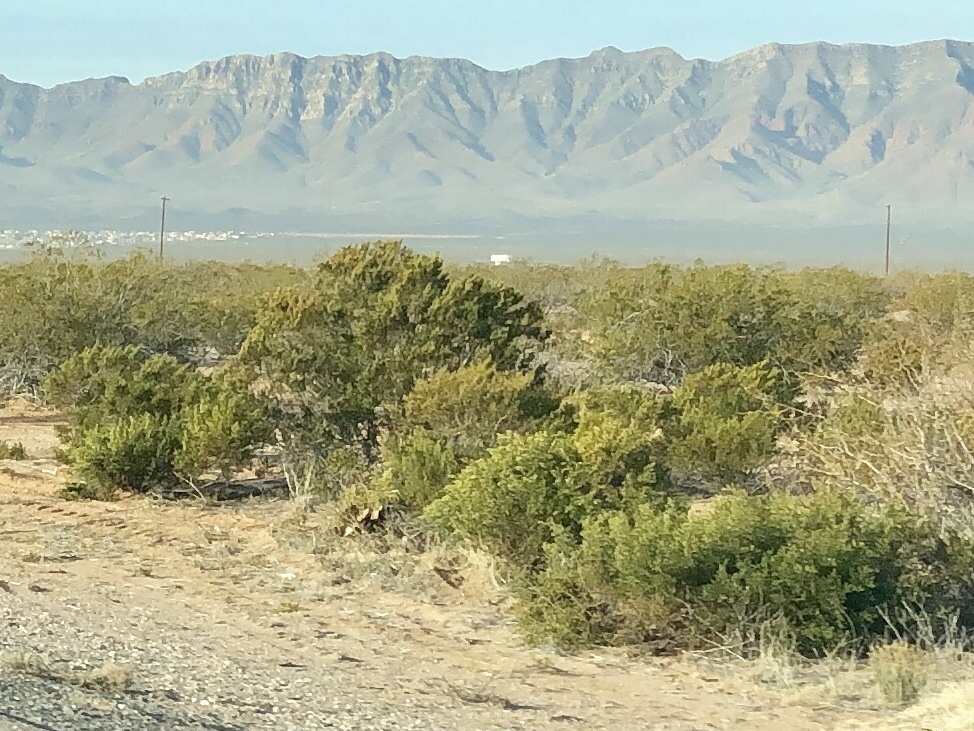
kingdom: Plantae
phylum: Tracheophyta
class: Magnoliopsida
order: Zygophyllales
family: Zygophyllaceae
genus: Larrea
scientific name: Larrea tridentata
